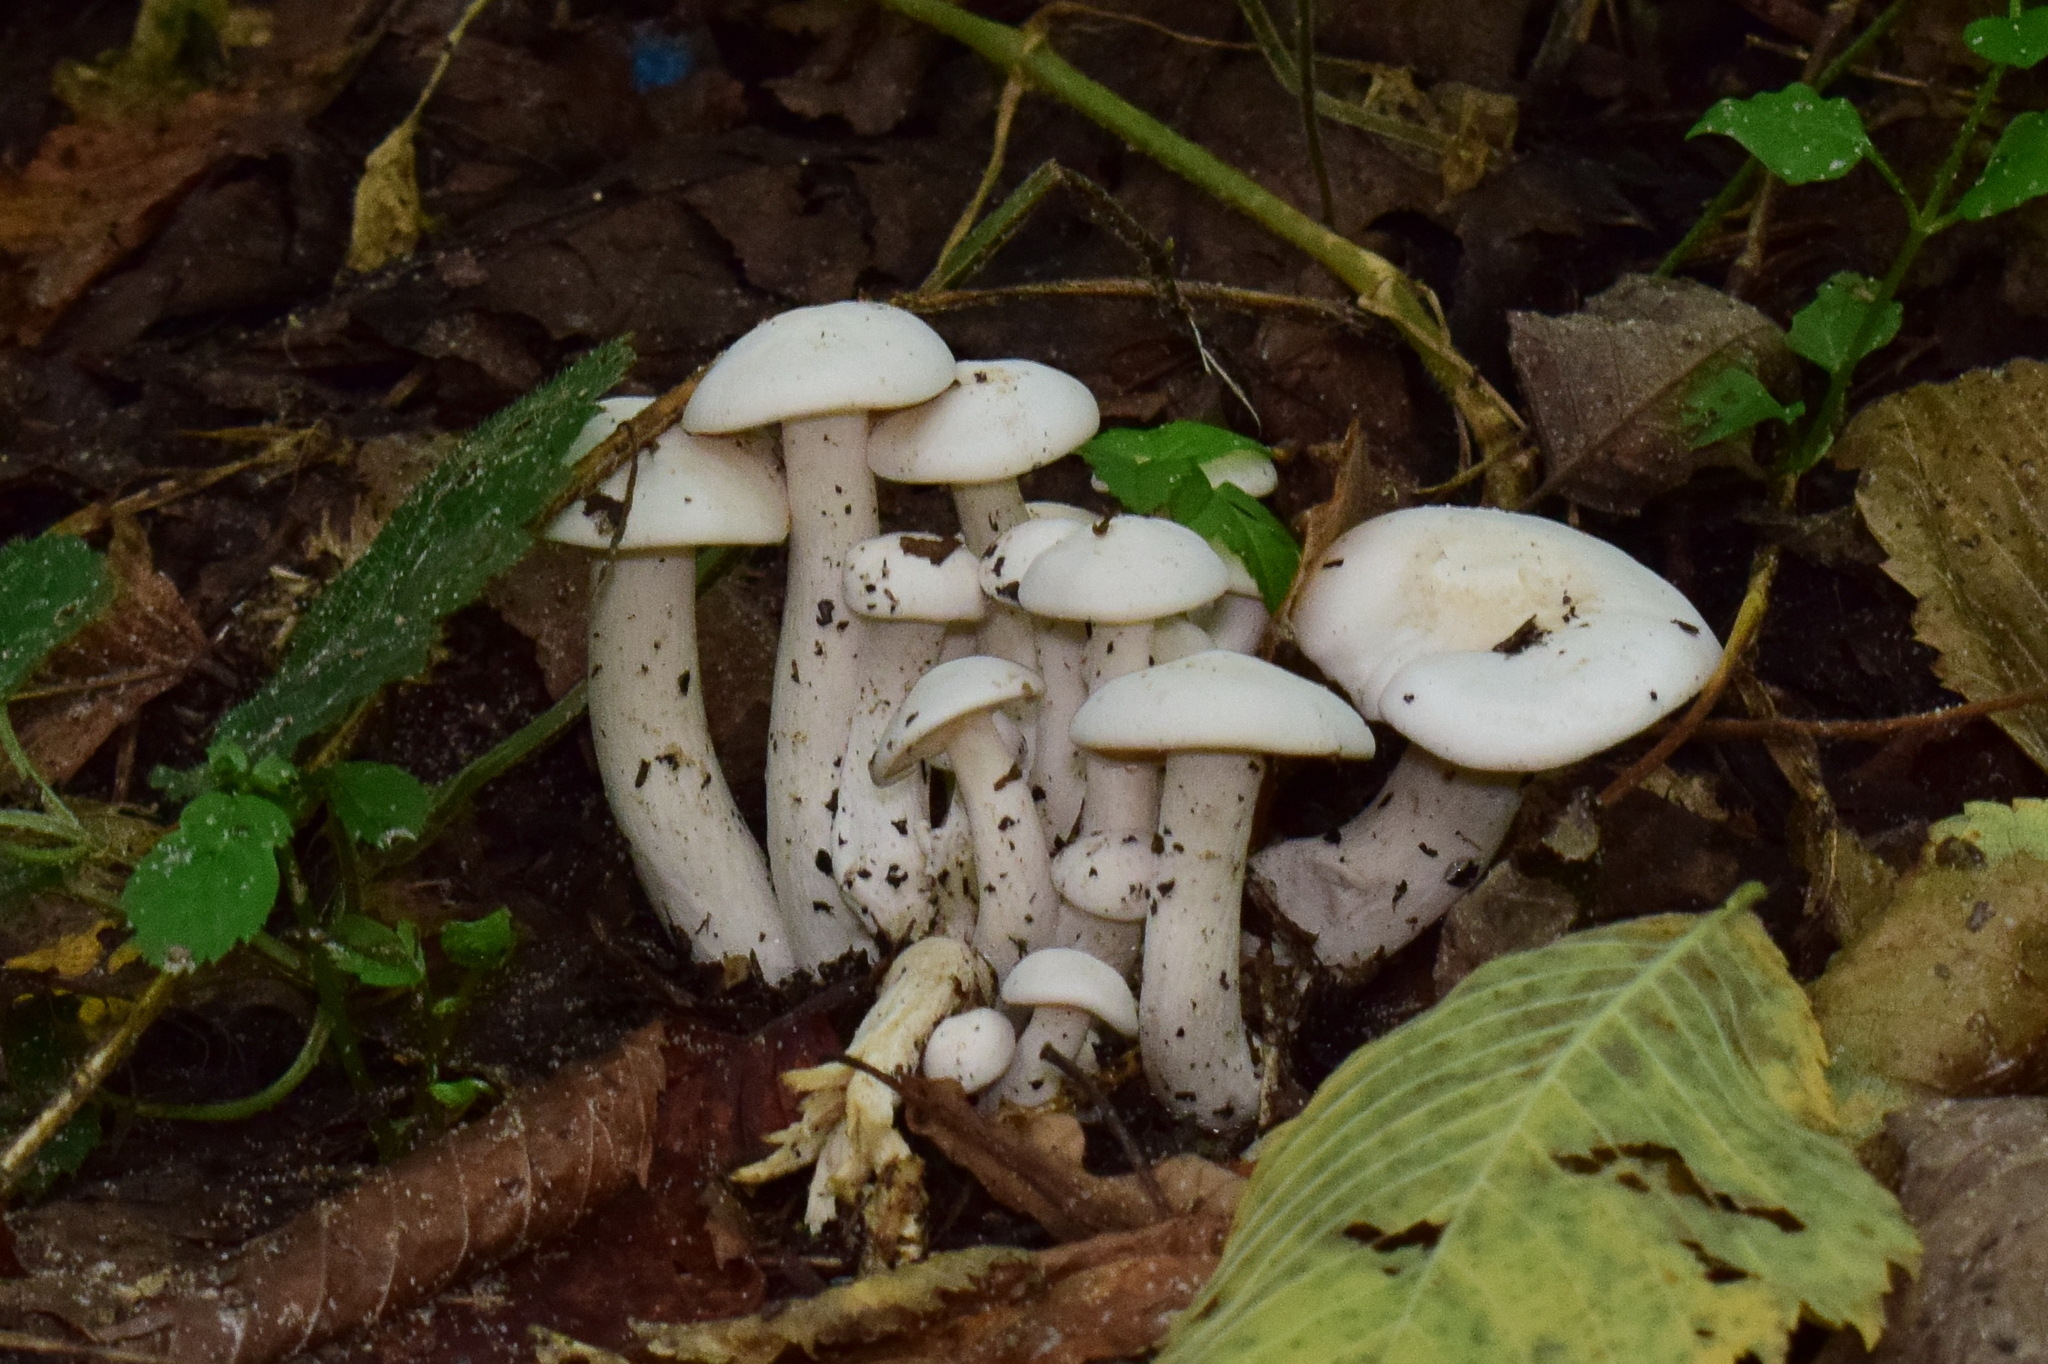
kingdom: Fungi
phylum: Basidiomycota
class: Agaricomycetes
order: Agaricales
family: Tricholomataceae
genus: Leucocybe
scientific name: Leucocybe connata
